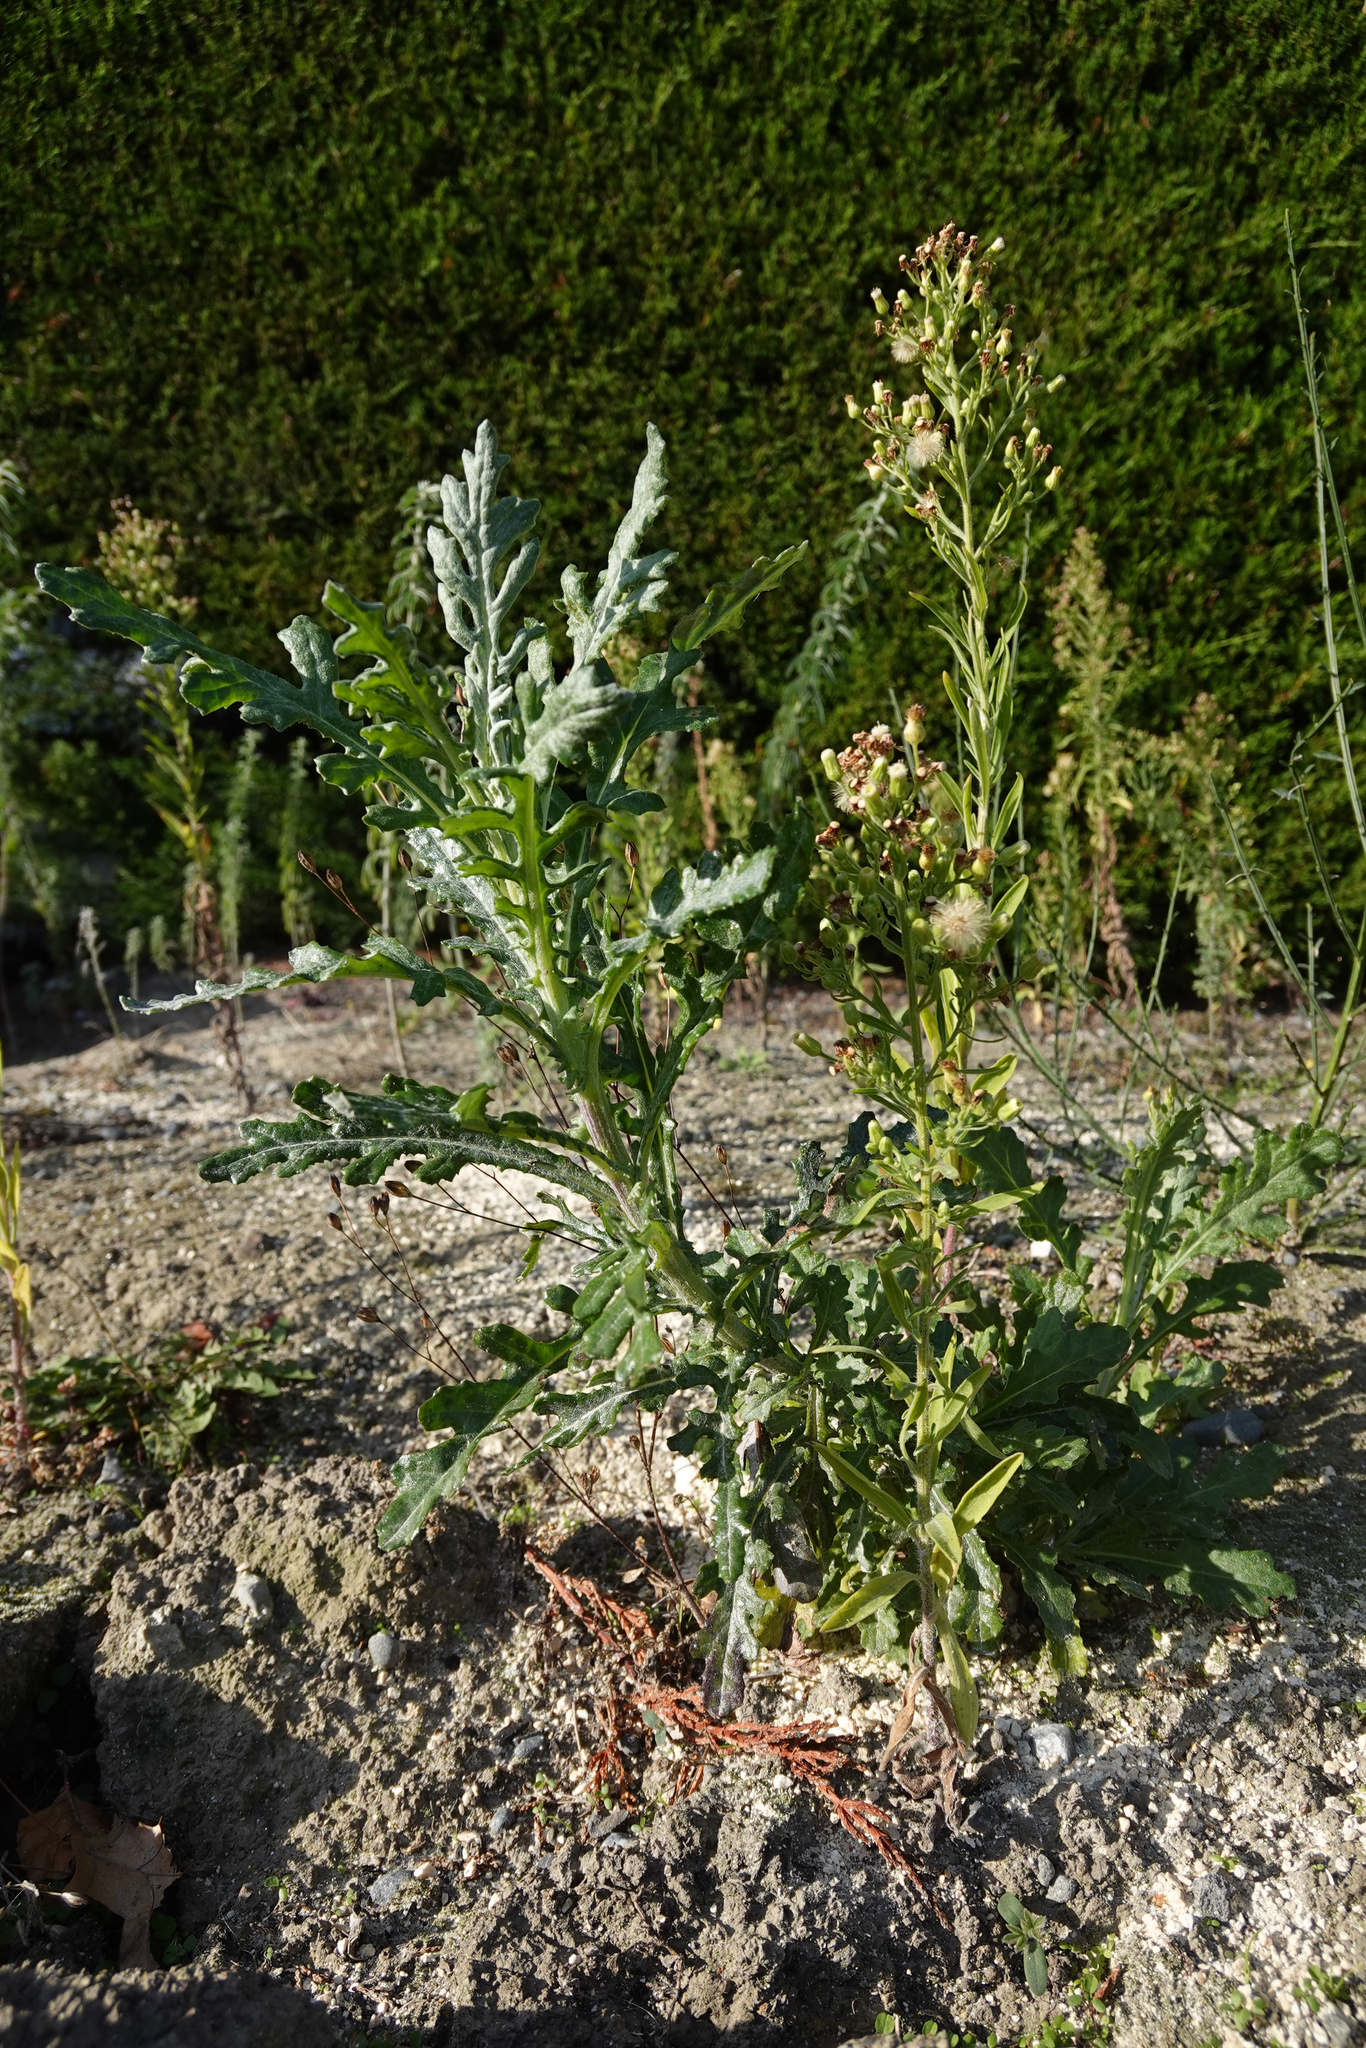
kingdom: Plantae
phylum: Tracheophyta
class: Magnoliopsida
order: Asterales
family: Asteraceae
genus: Senecio
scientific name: Senecio glomeratus
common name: Cutleaf burnweed
